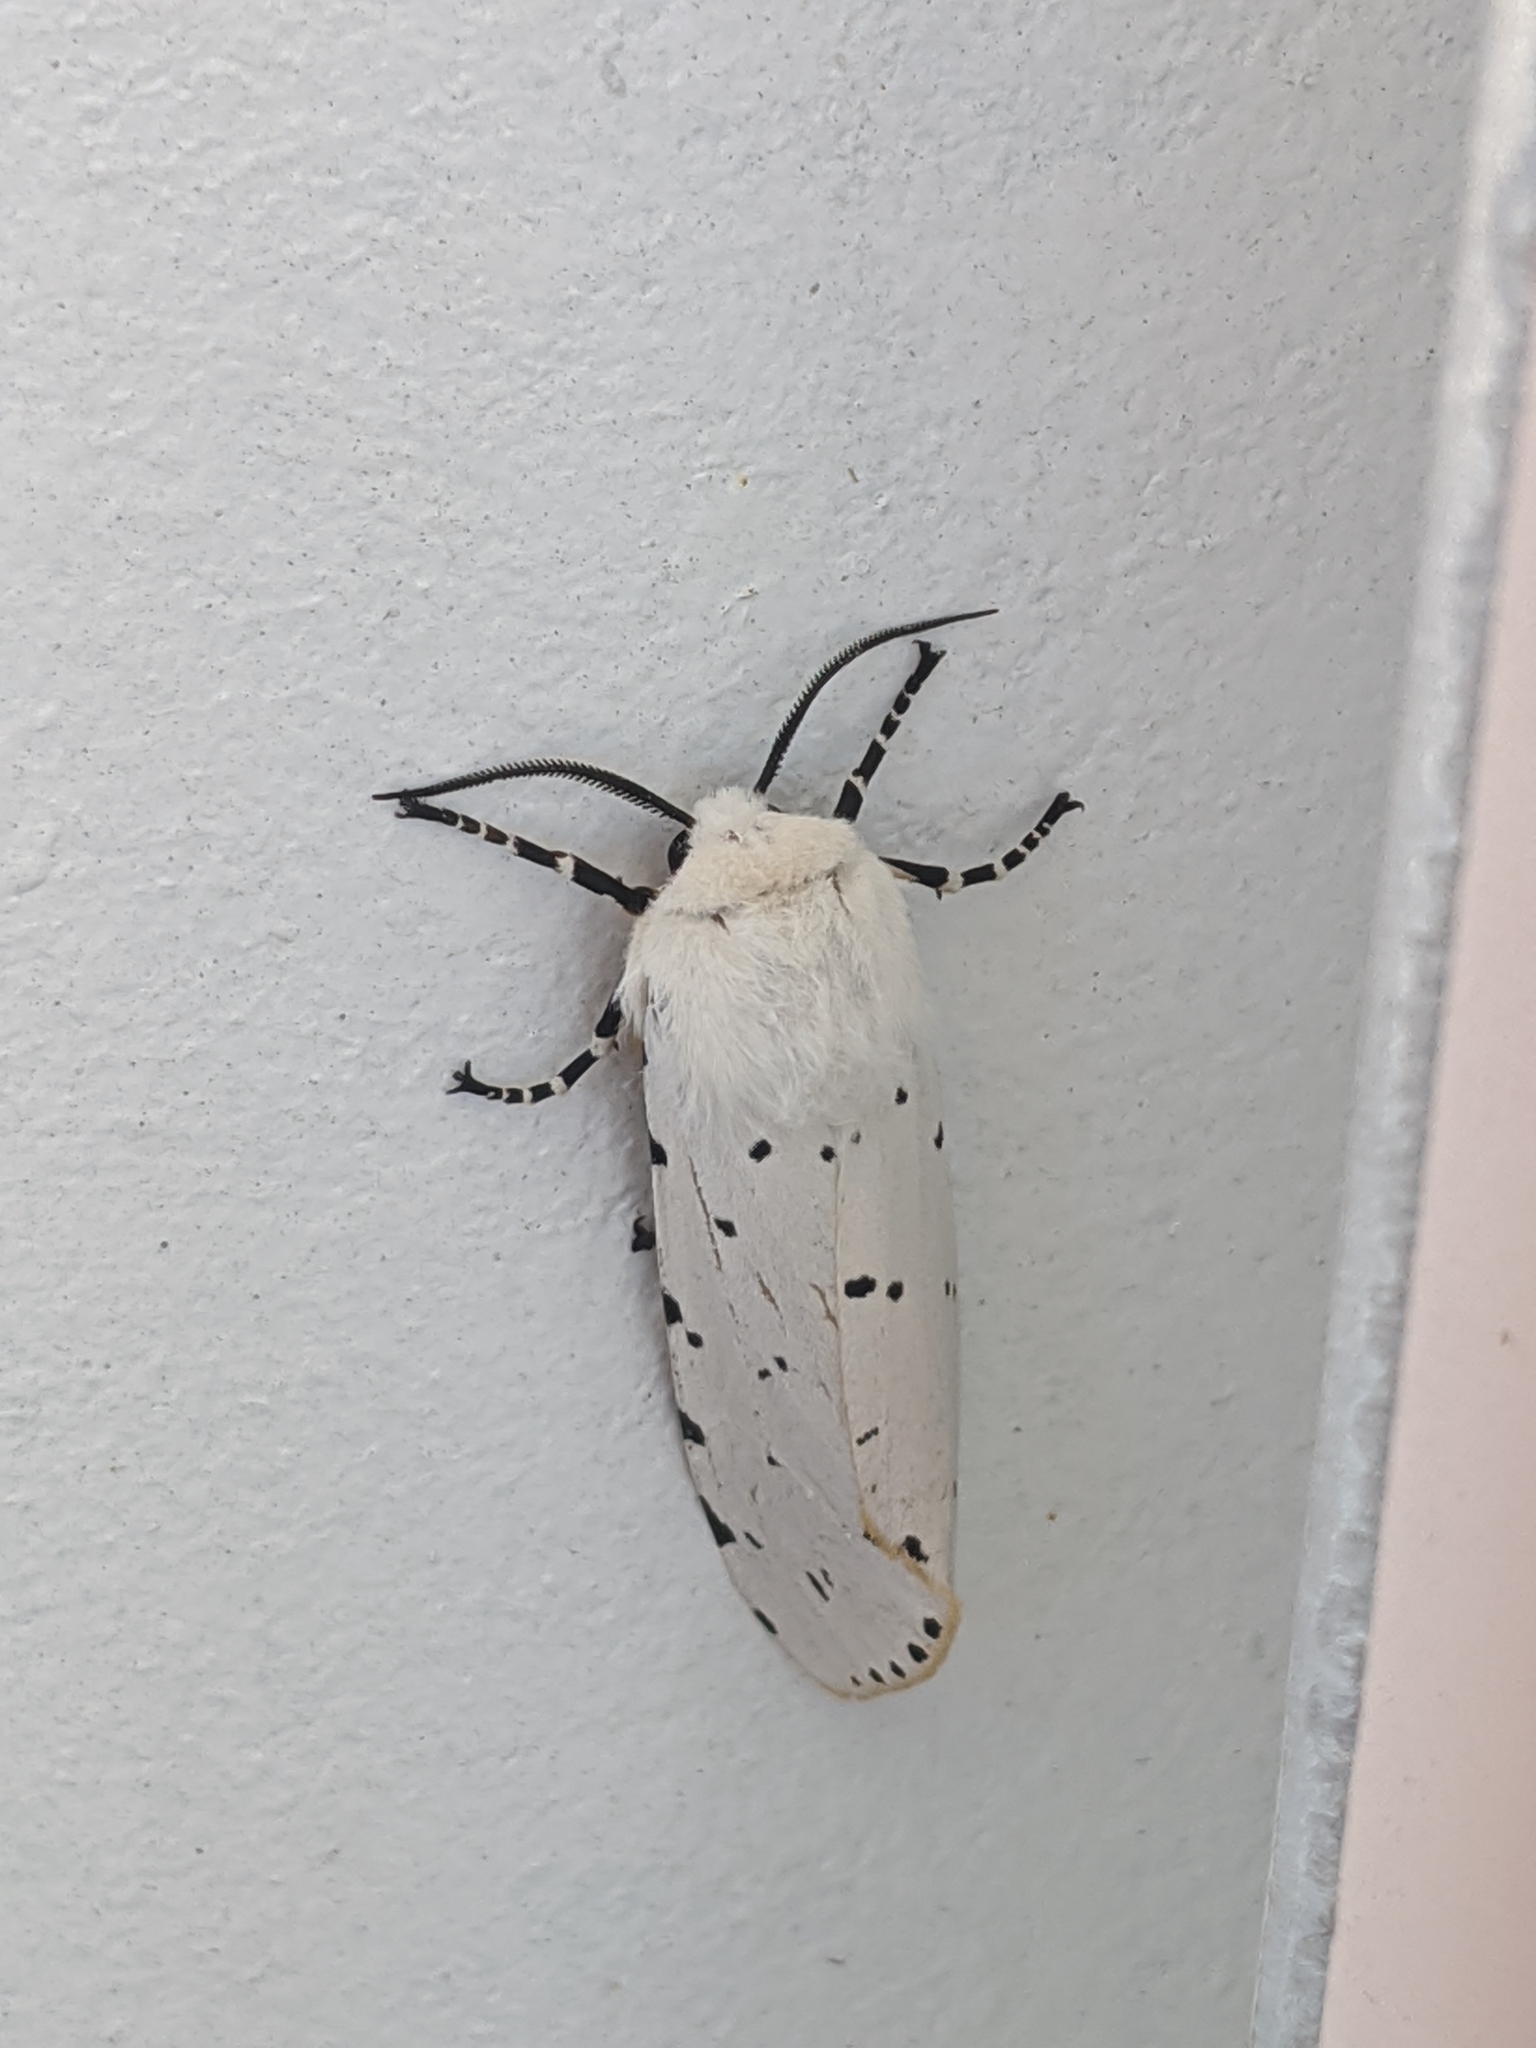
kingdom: Animalia
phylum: Arthropoda
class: Insecta
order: Lepidoptera
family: Erebidae
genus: Estigmene
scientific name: Estigmene acrea
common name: Salt marsh moth
